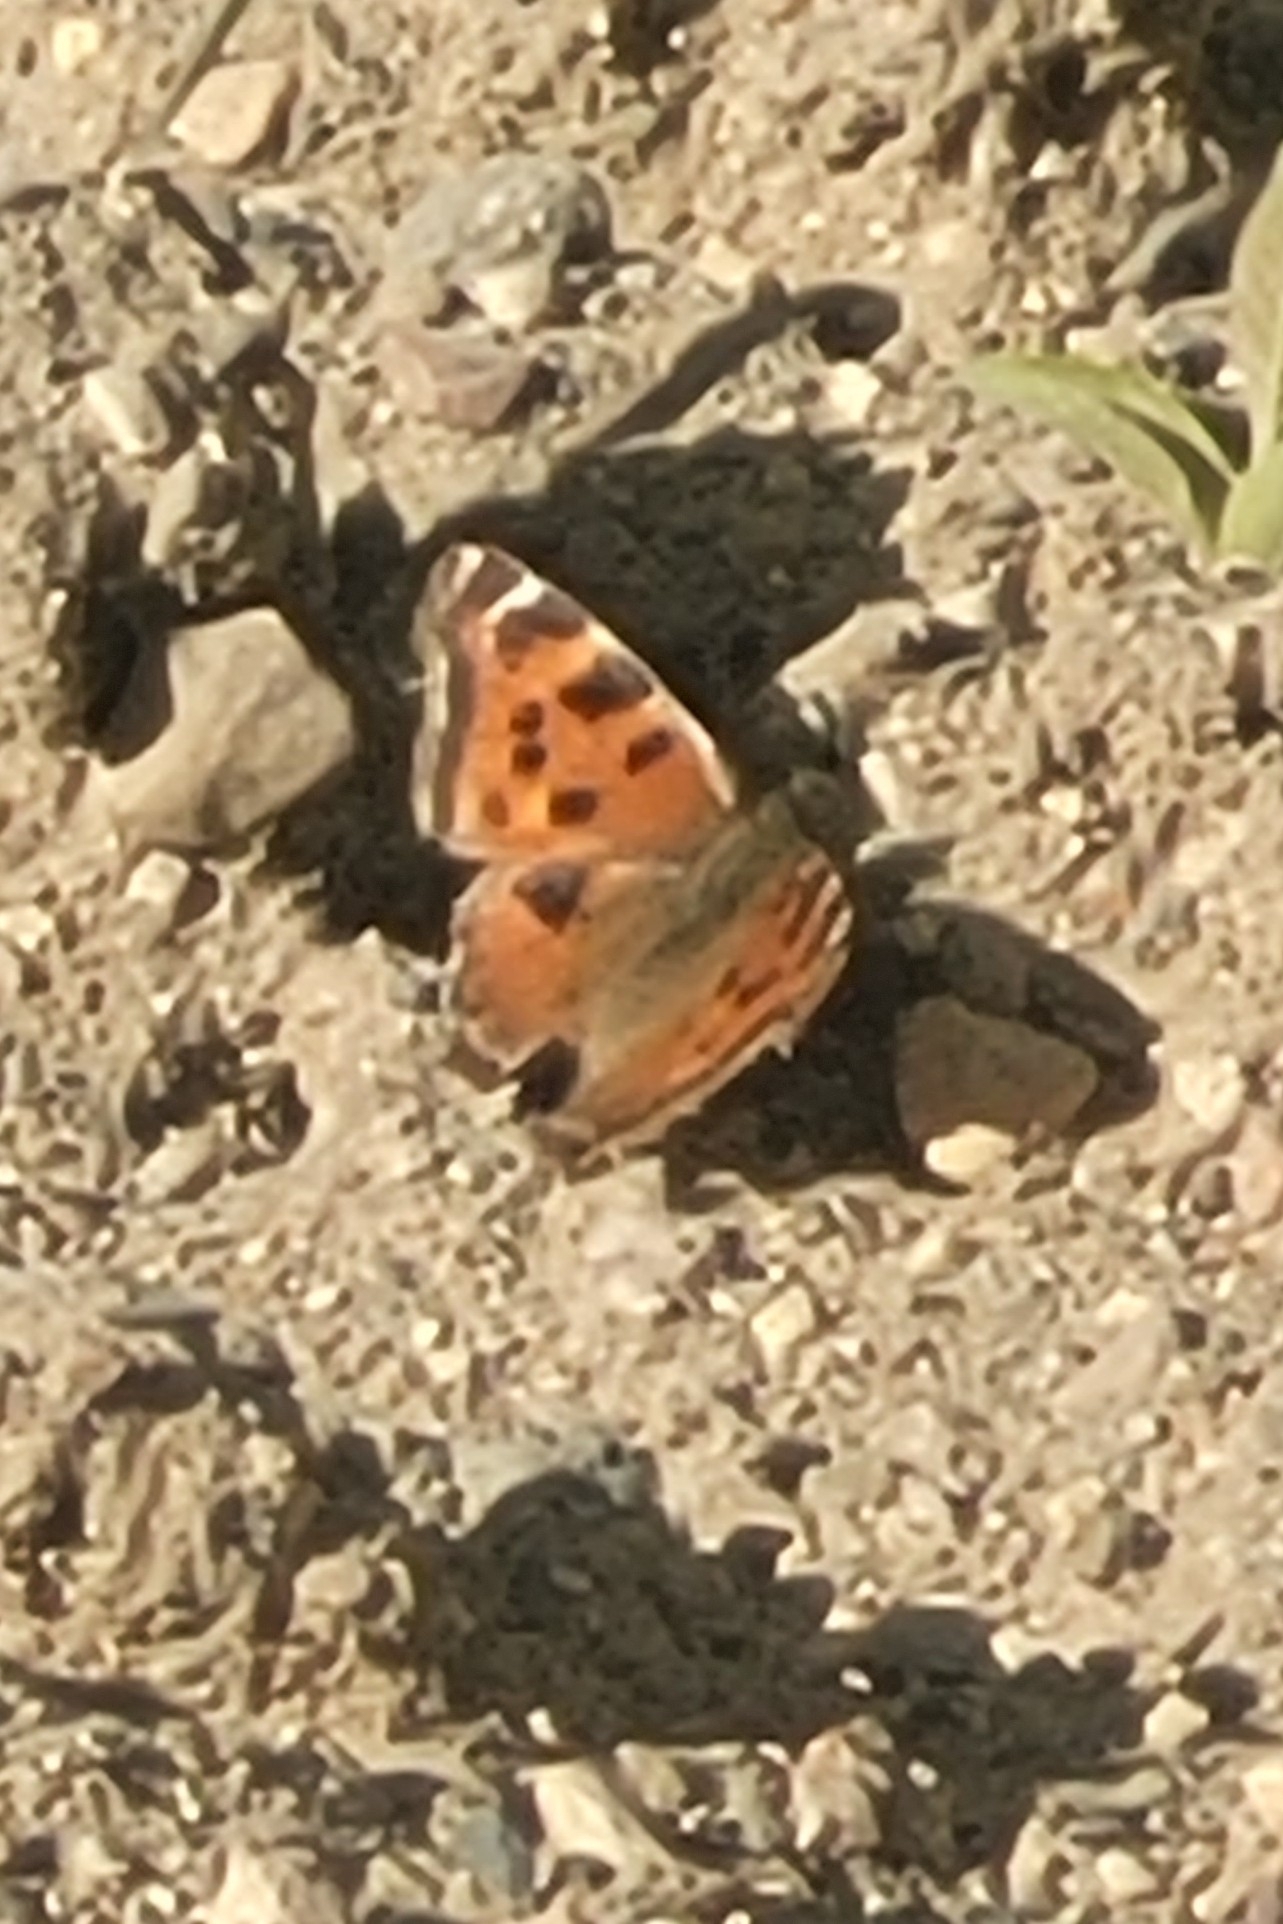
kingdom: Animalia
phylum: Arthropoda
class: Insecta
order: Lepidoptera
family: Nymphalidae
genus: Nymphalis
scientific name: Nymphalis xanthomelas
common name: Scarce tortoiseshell
